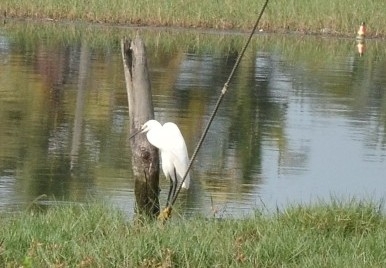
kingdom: Animalia
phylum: Chordata
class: Aves
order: Pelecaniformes
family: Ardeidae
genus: Egretta
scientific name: Egretta garzetta
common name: Little egret
